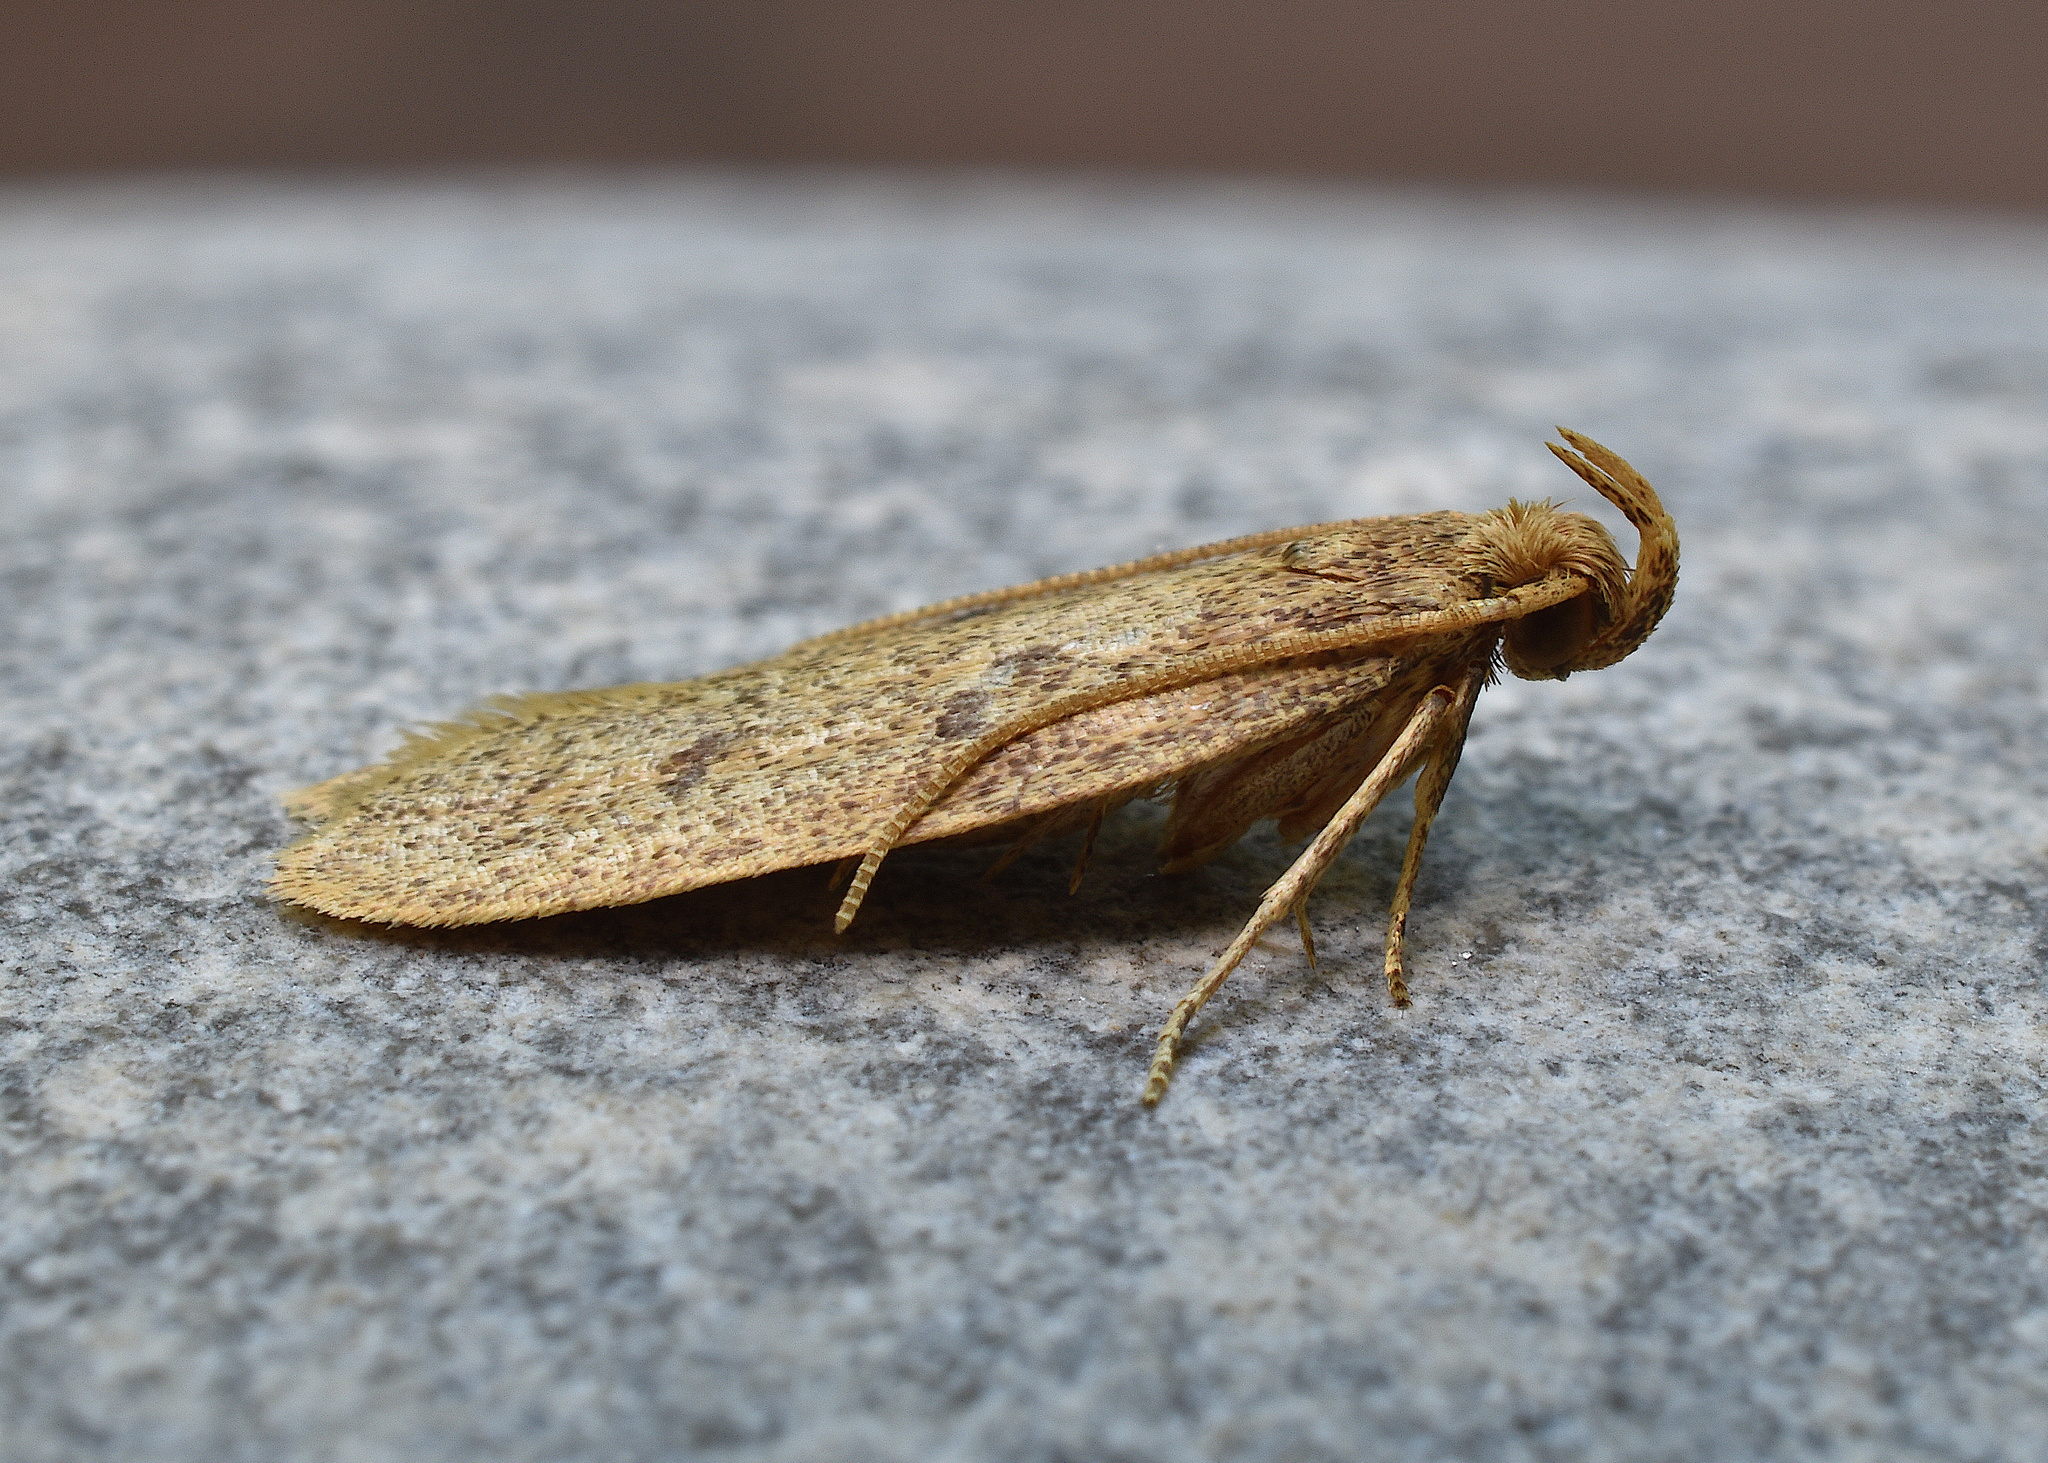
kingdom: Animalia
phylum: Arthropoda
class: Insecta
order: Lepidoptera
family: Autostichidae
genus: Glyphidocera
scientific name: Glyphidocera septentrionella
